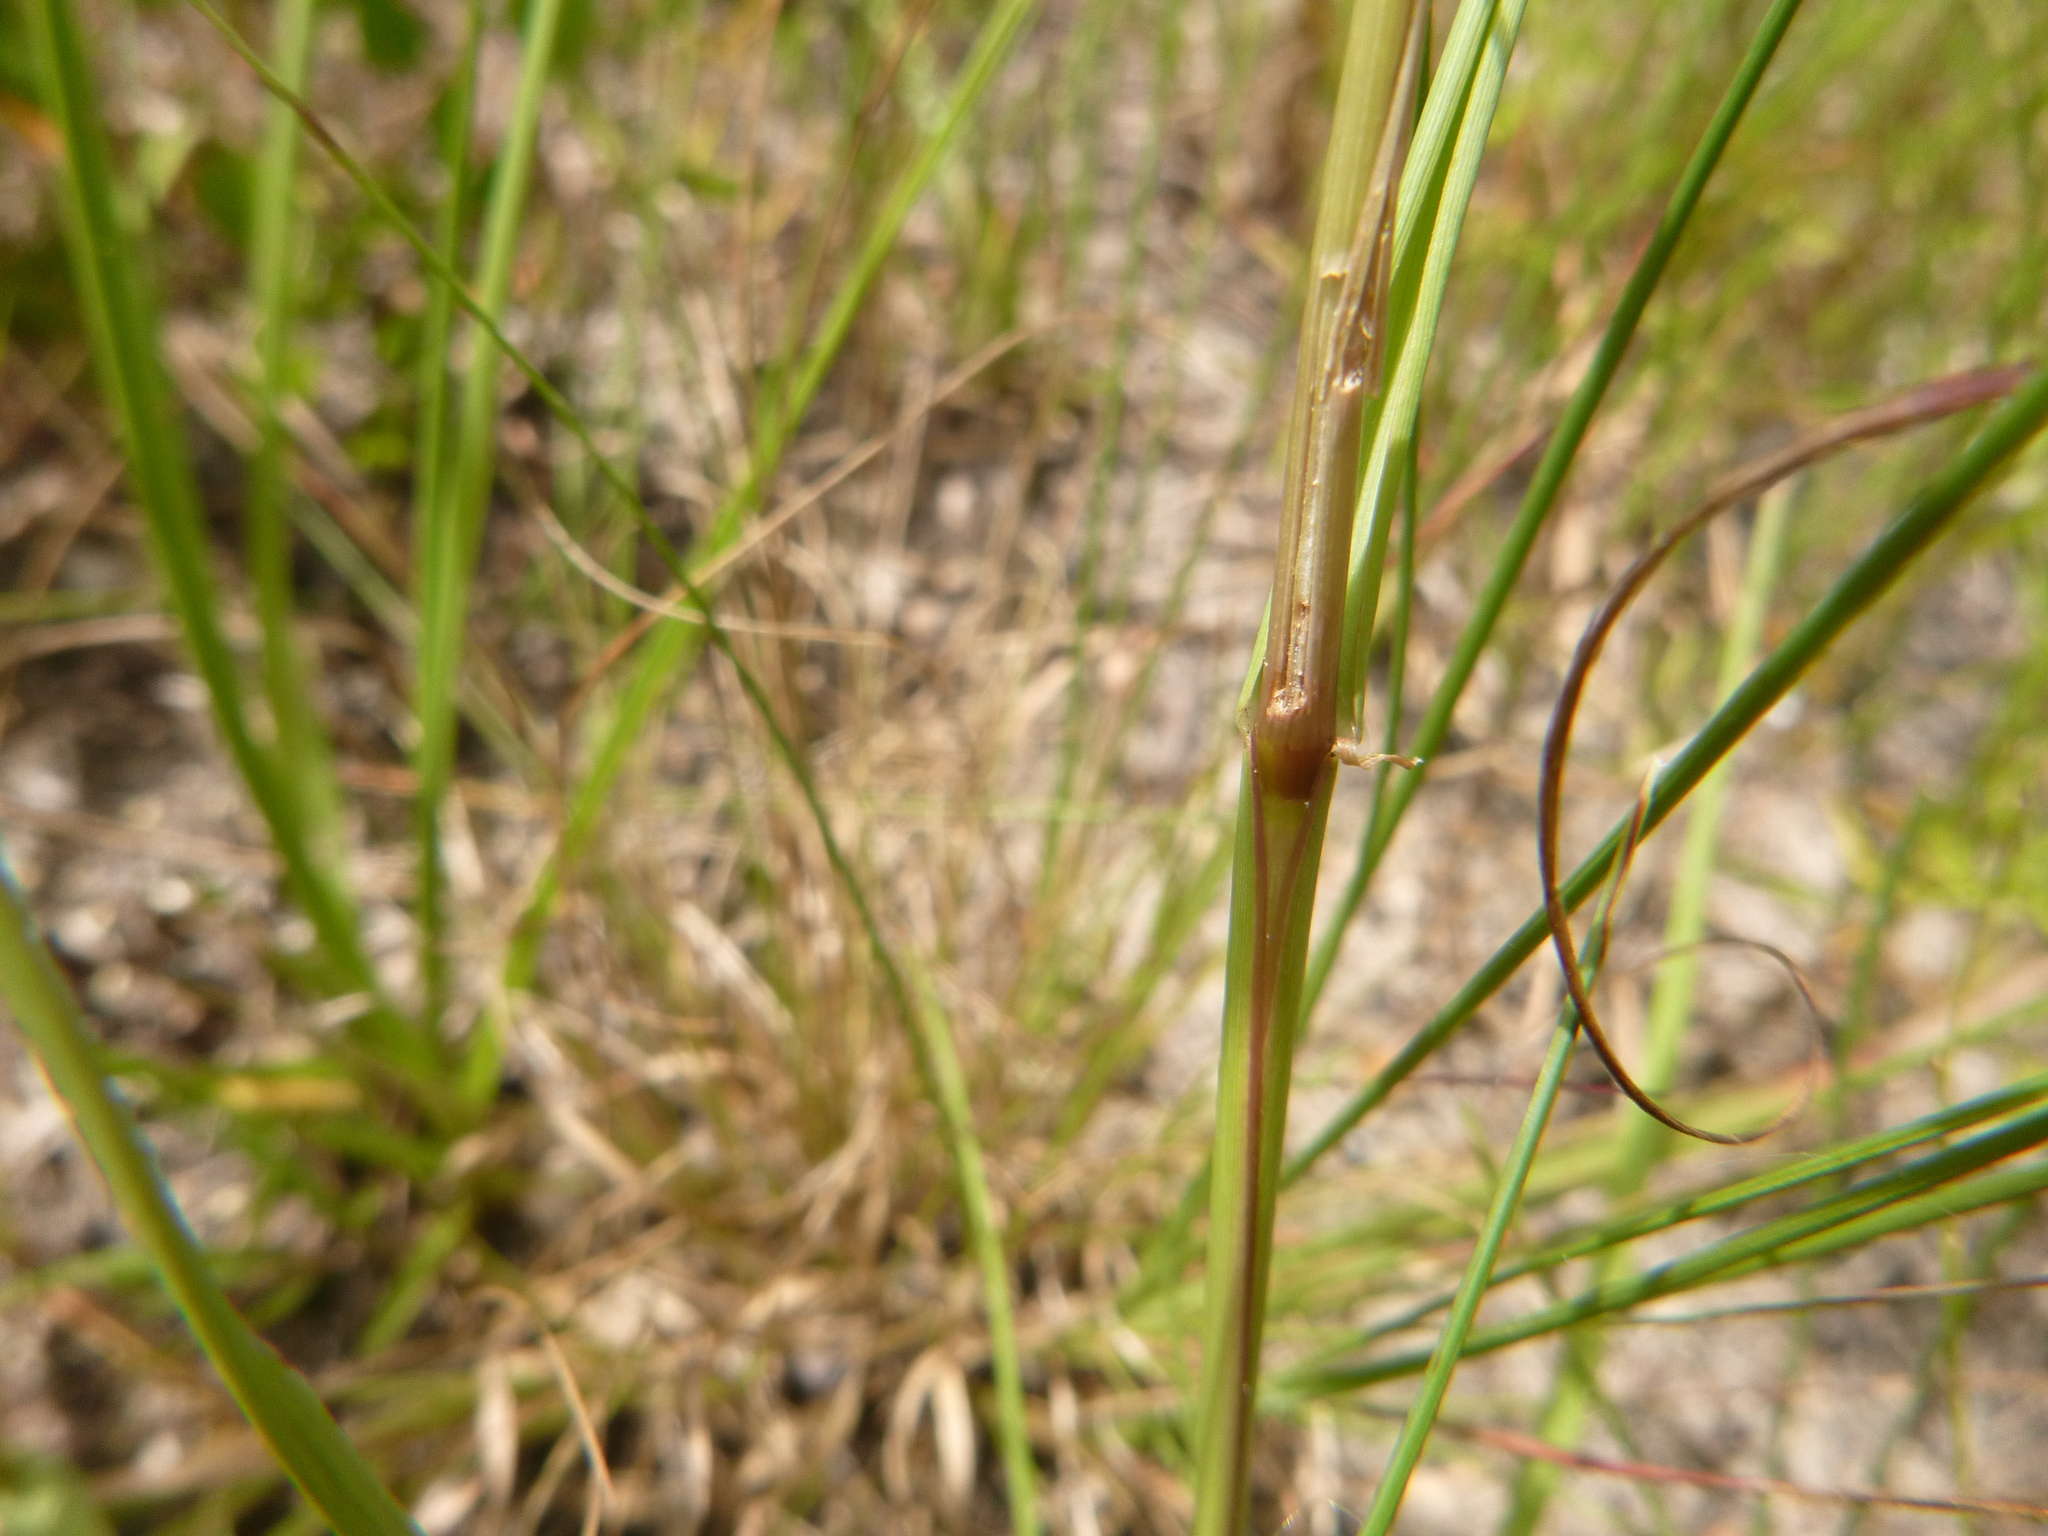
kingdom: Plantae
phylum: Tracheophyta
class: Liliopsida
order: Poales
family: Poaceae
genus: Paspalum
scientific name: Paspalum notatum
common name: Bahiagrass
